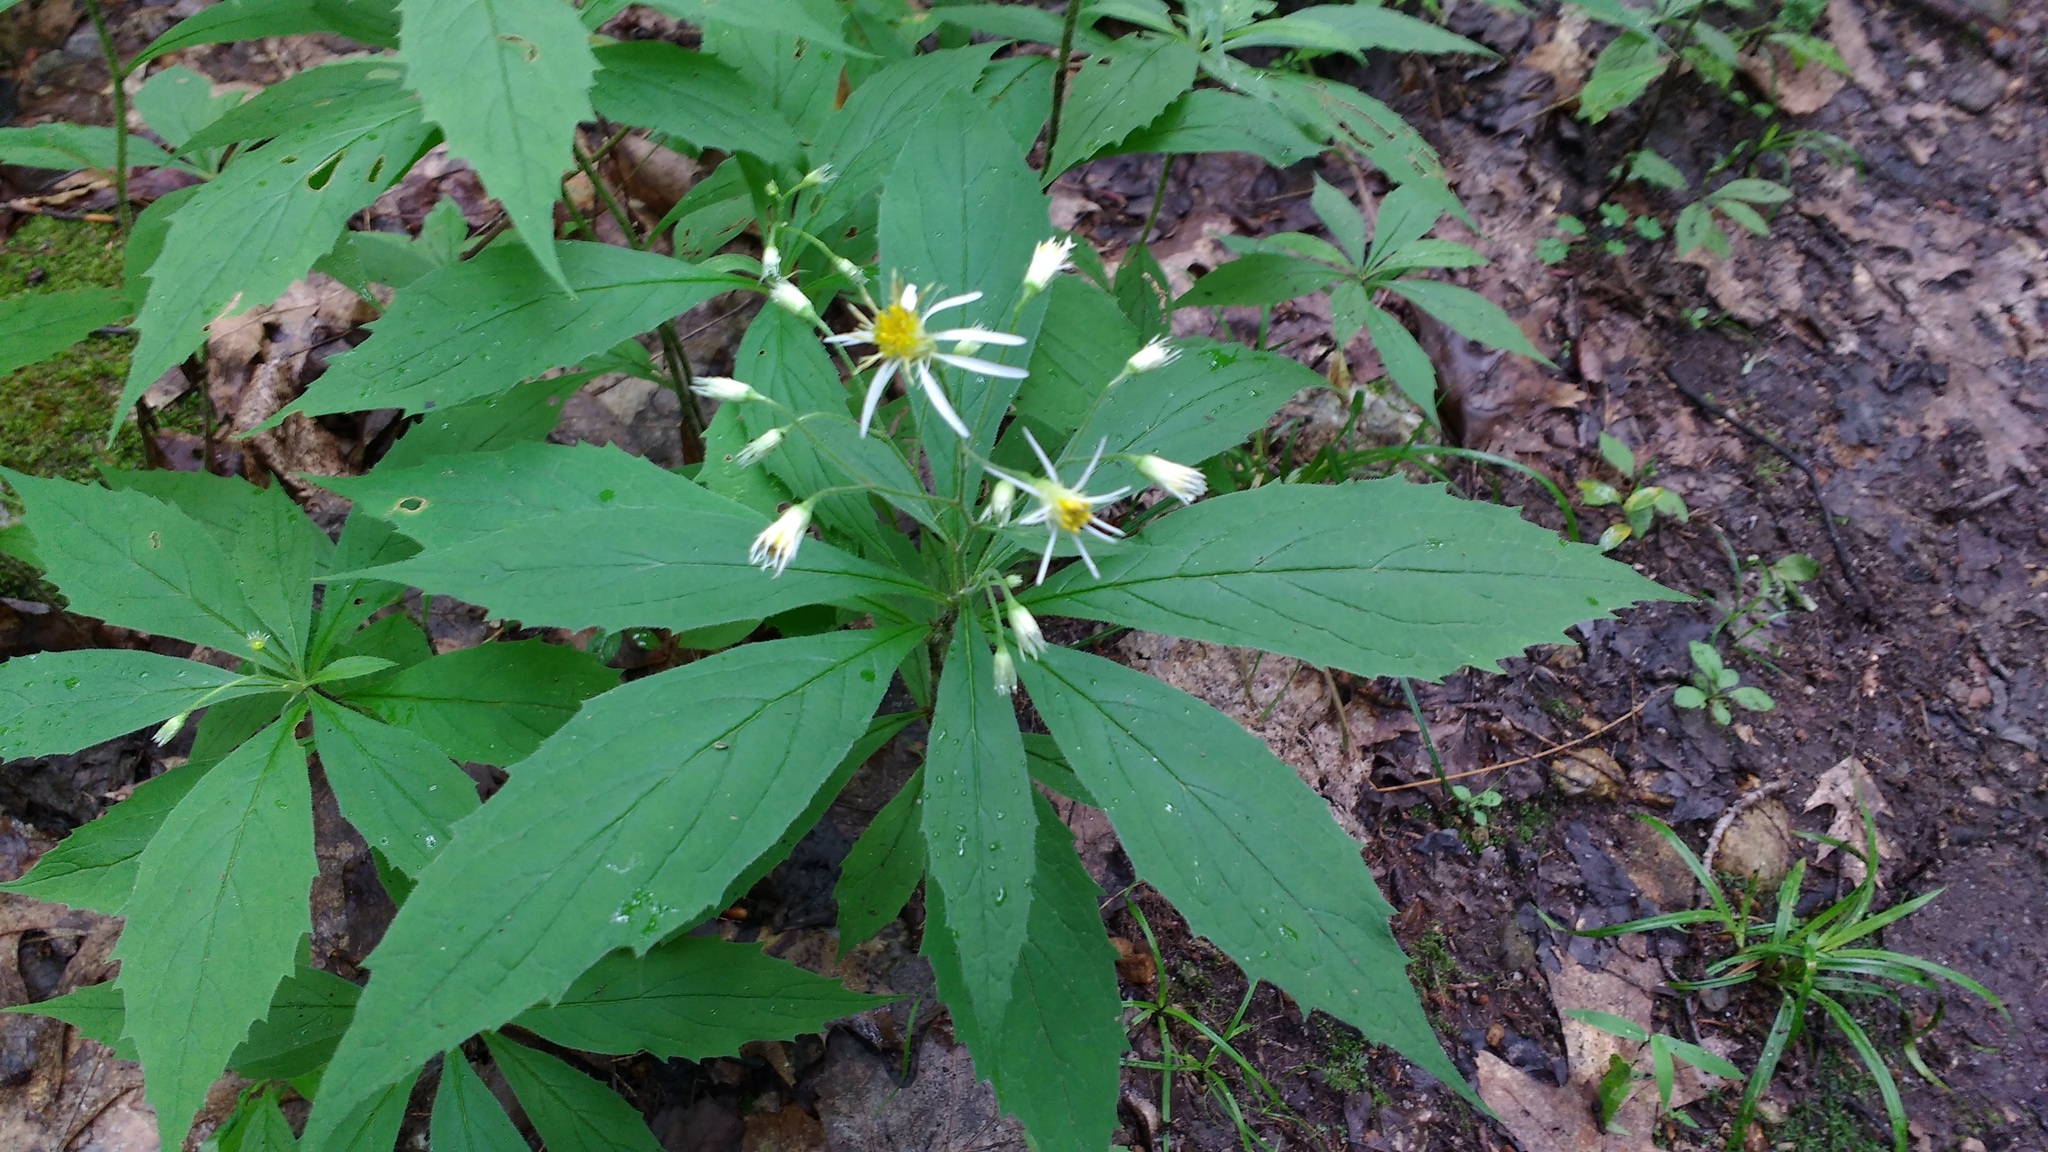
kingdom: Plantae
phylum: Tracheophyta
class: Magnoliopsida
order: Asterales
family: Asteraceae
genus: Oclemena
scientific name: Oclemena acuminata
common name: Mountain aster
